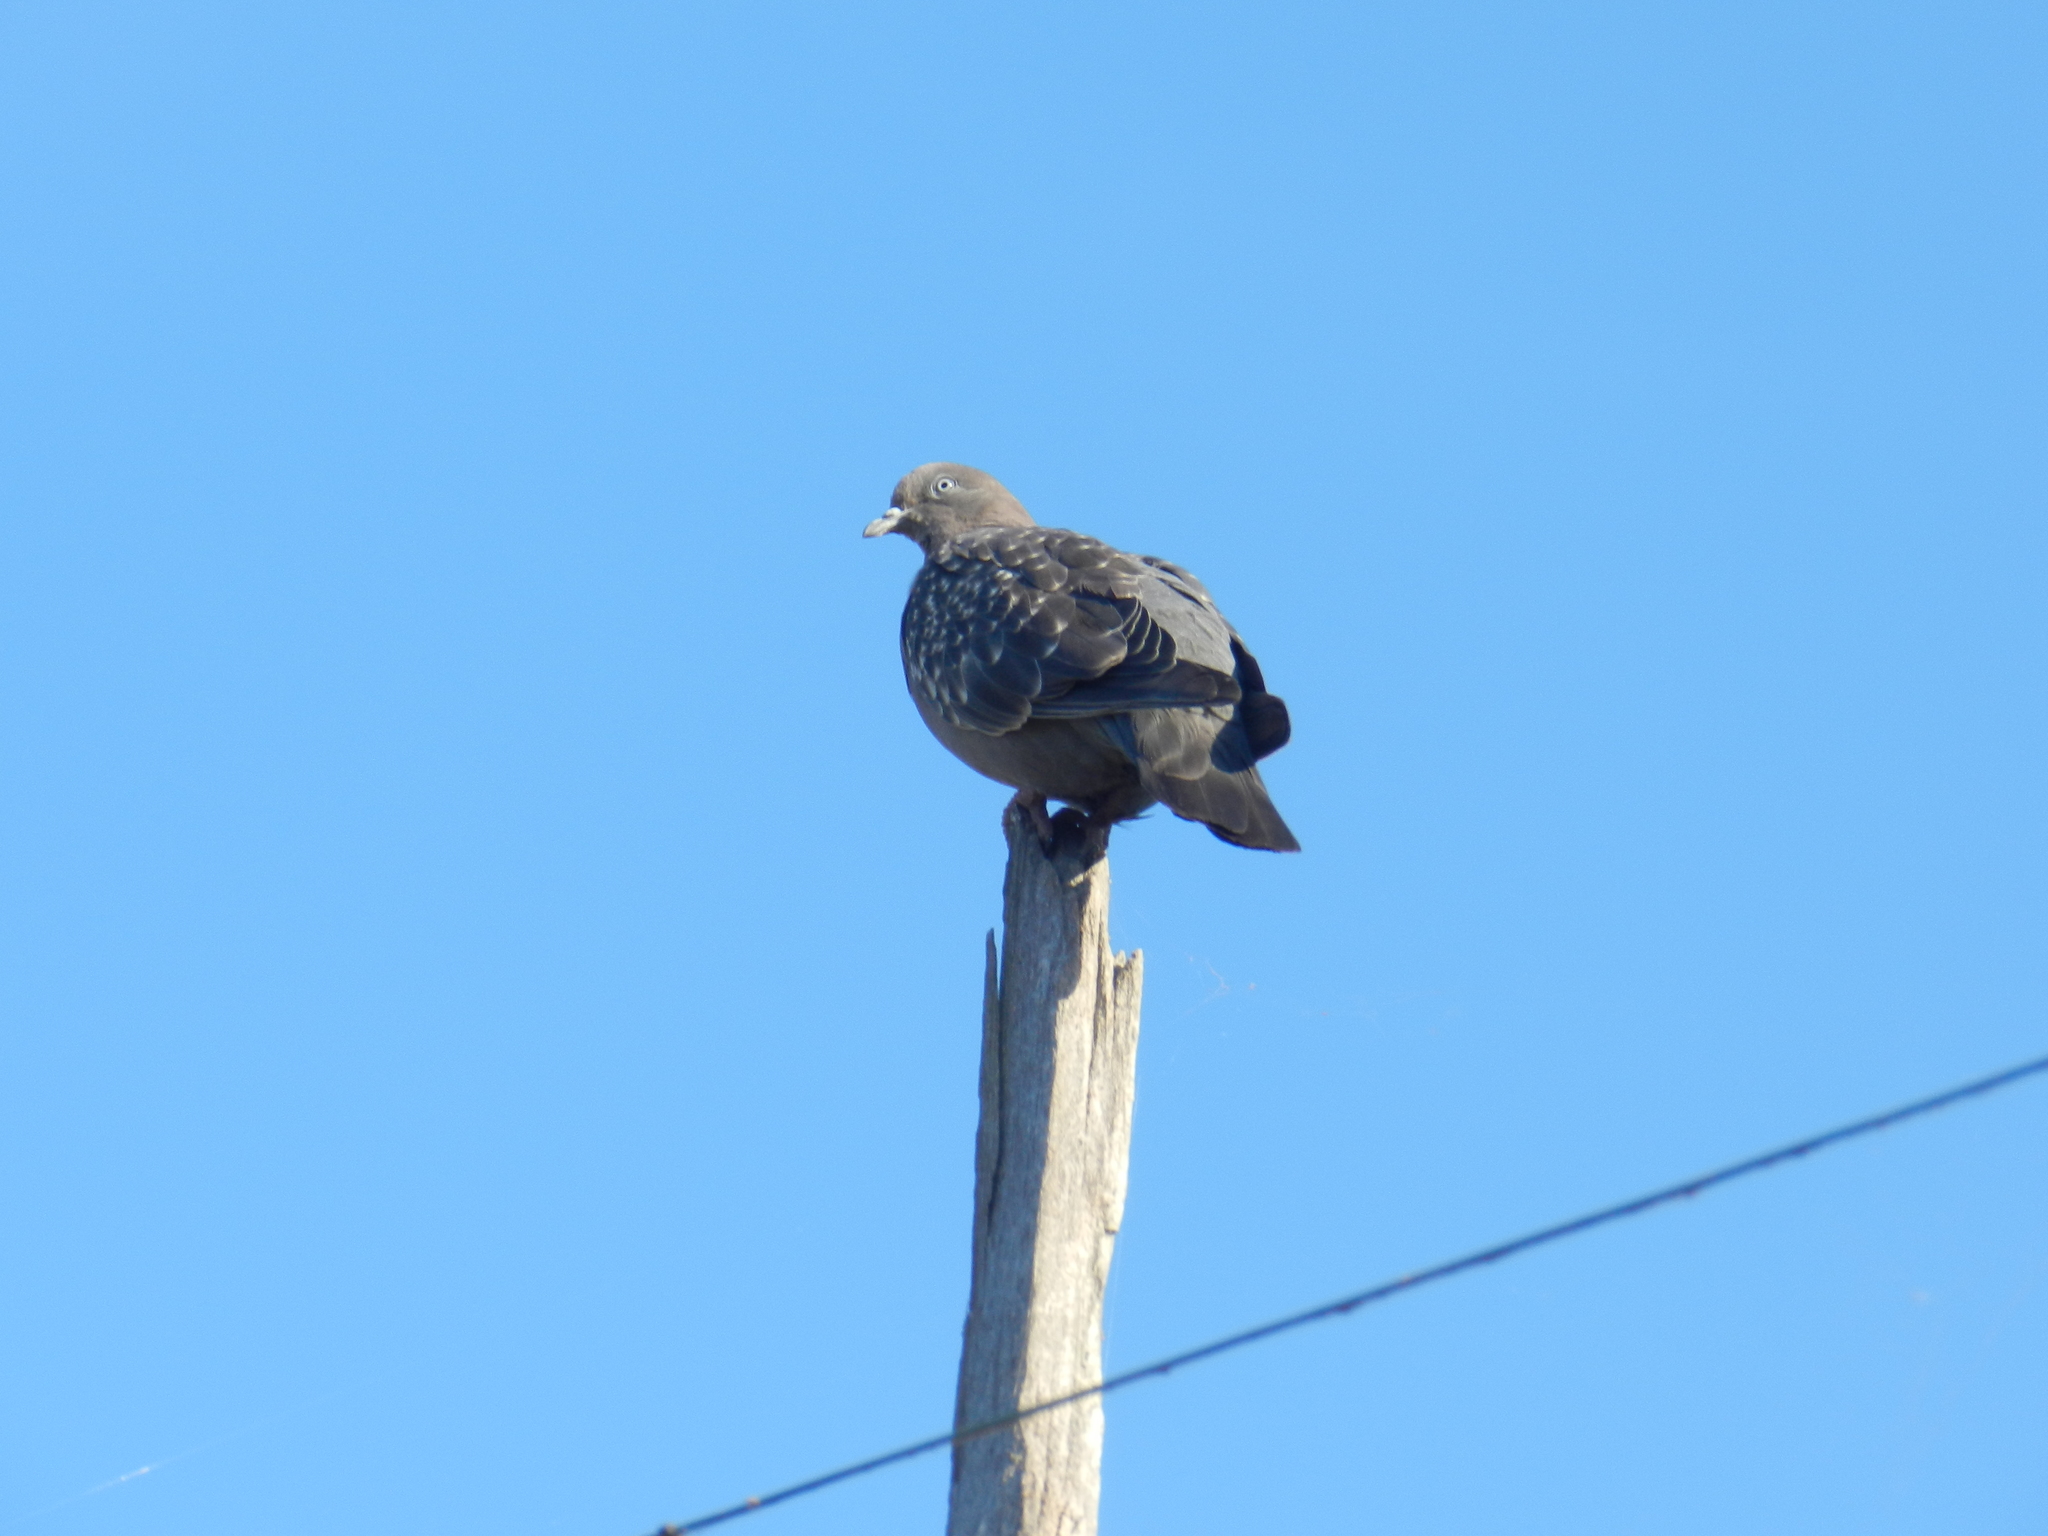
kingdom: Animalia
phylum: Chordata
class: Aves
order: Columbiformes
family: Columbidae
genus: Patagioenas
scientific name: Patagioenas maculosa
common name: Spot-winged pigeon
